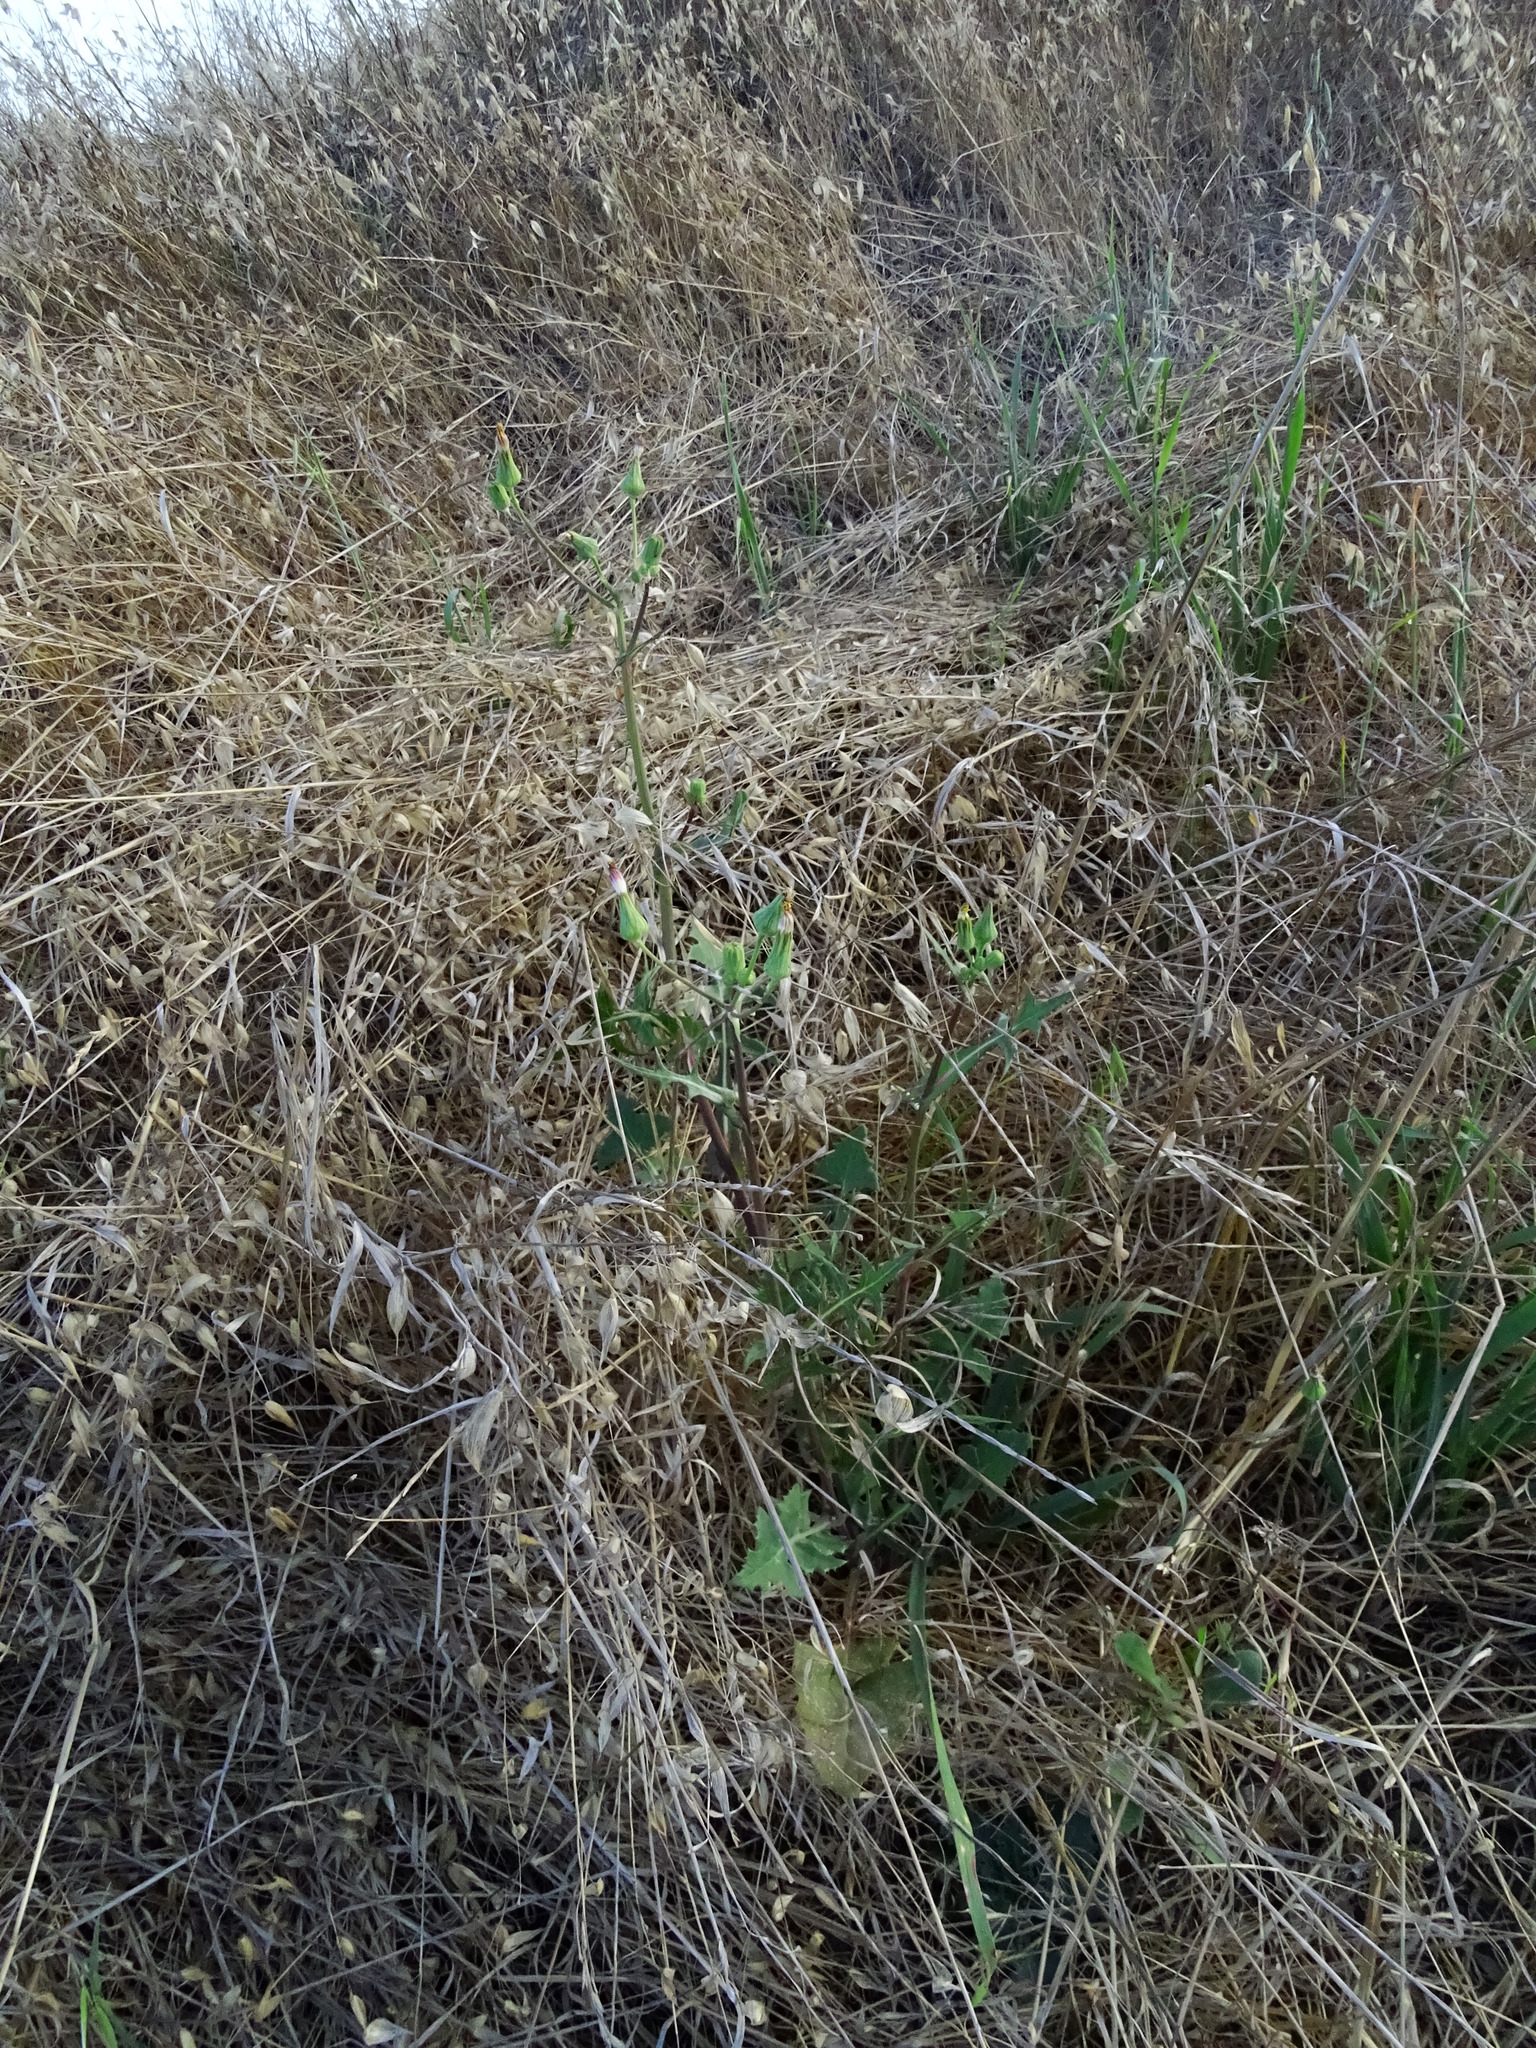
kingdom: Plantae
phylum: Tracheophyta
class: Magnoliopsida
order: Asterales
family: Asteraceae
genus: Sonchus
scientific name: Sonchus oleraceus
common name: Common sowthistle
